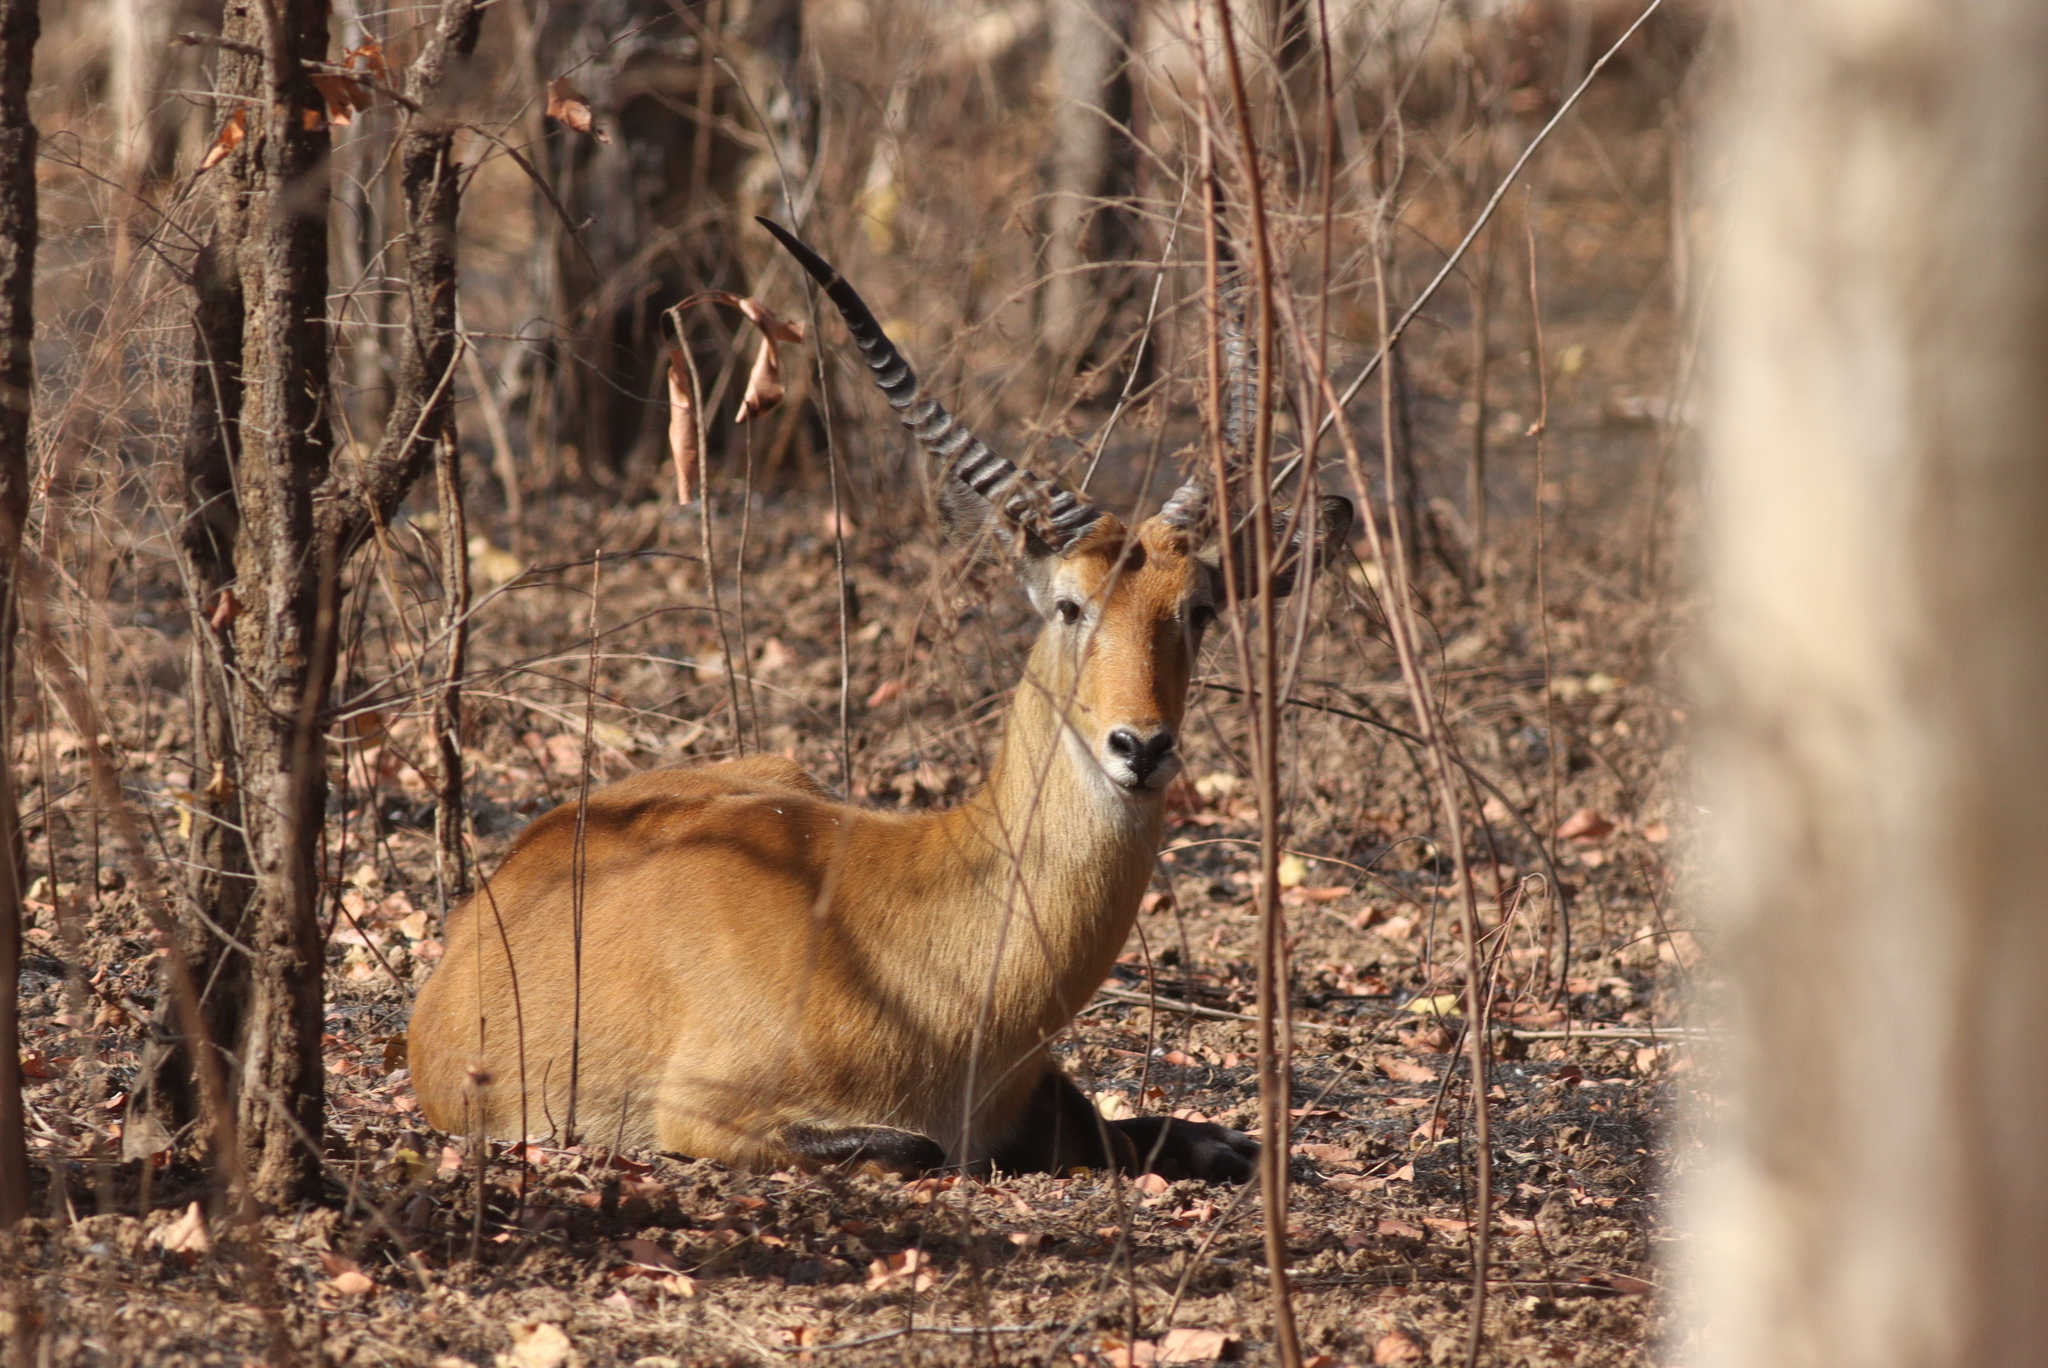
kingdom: Animalia
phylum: Chordata
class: Mammalia
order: Artiodactyla
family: Bovidae
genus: Kobus
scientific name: Kobus kob
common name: Kob
